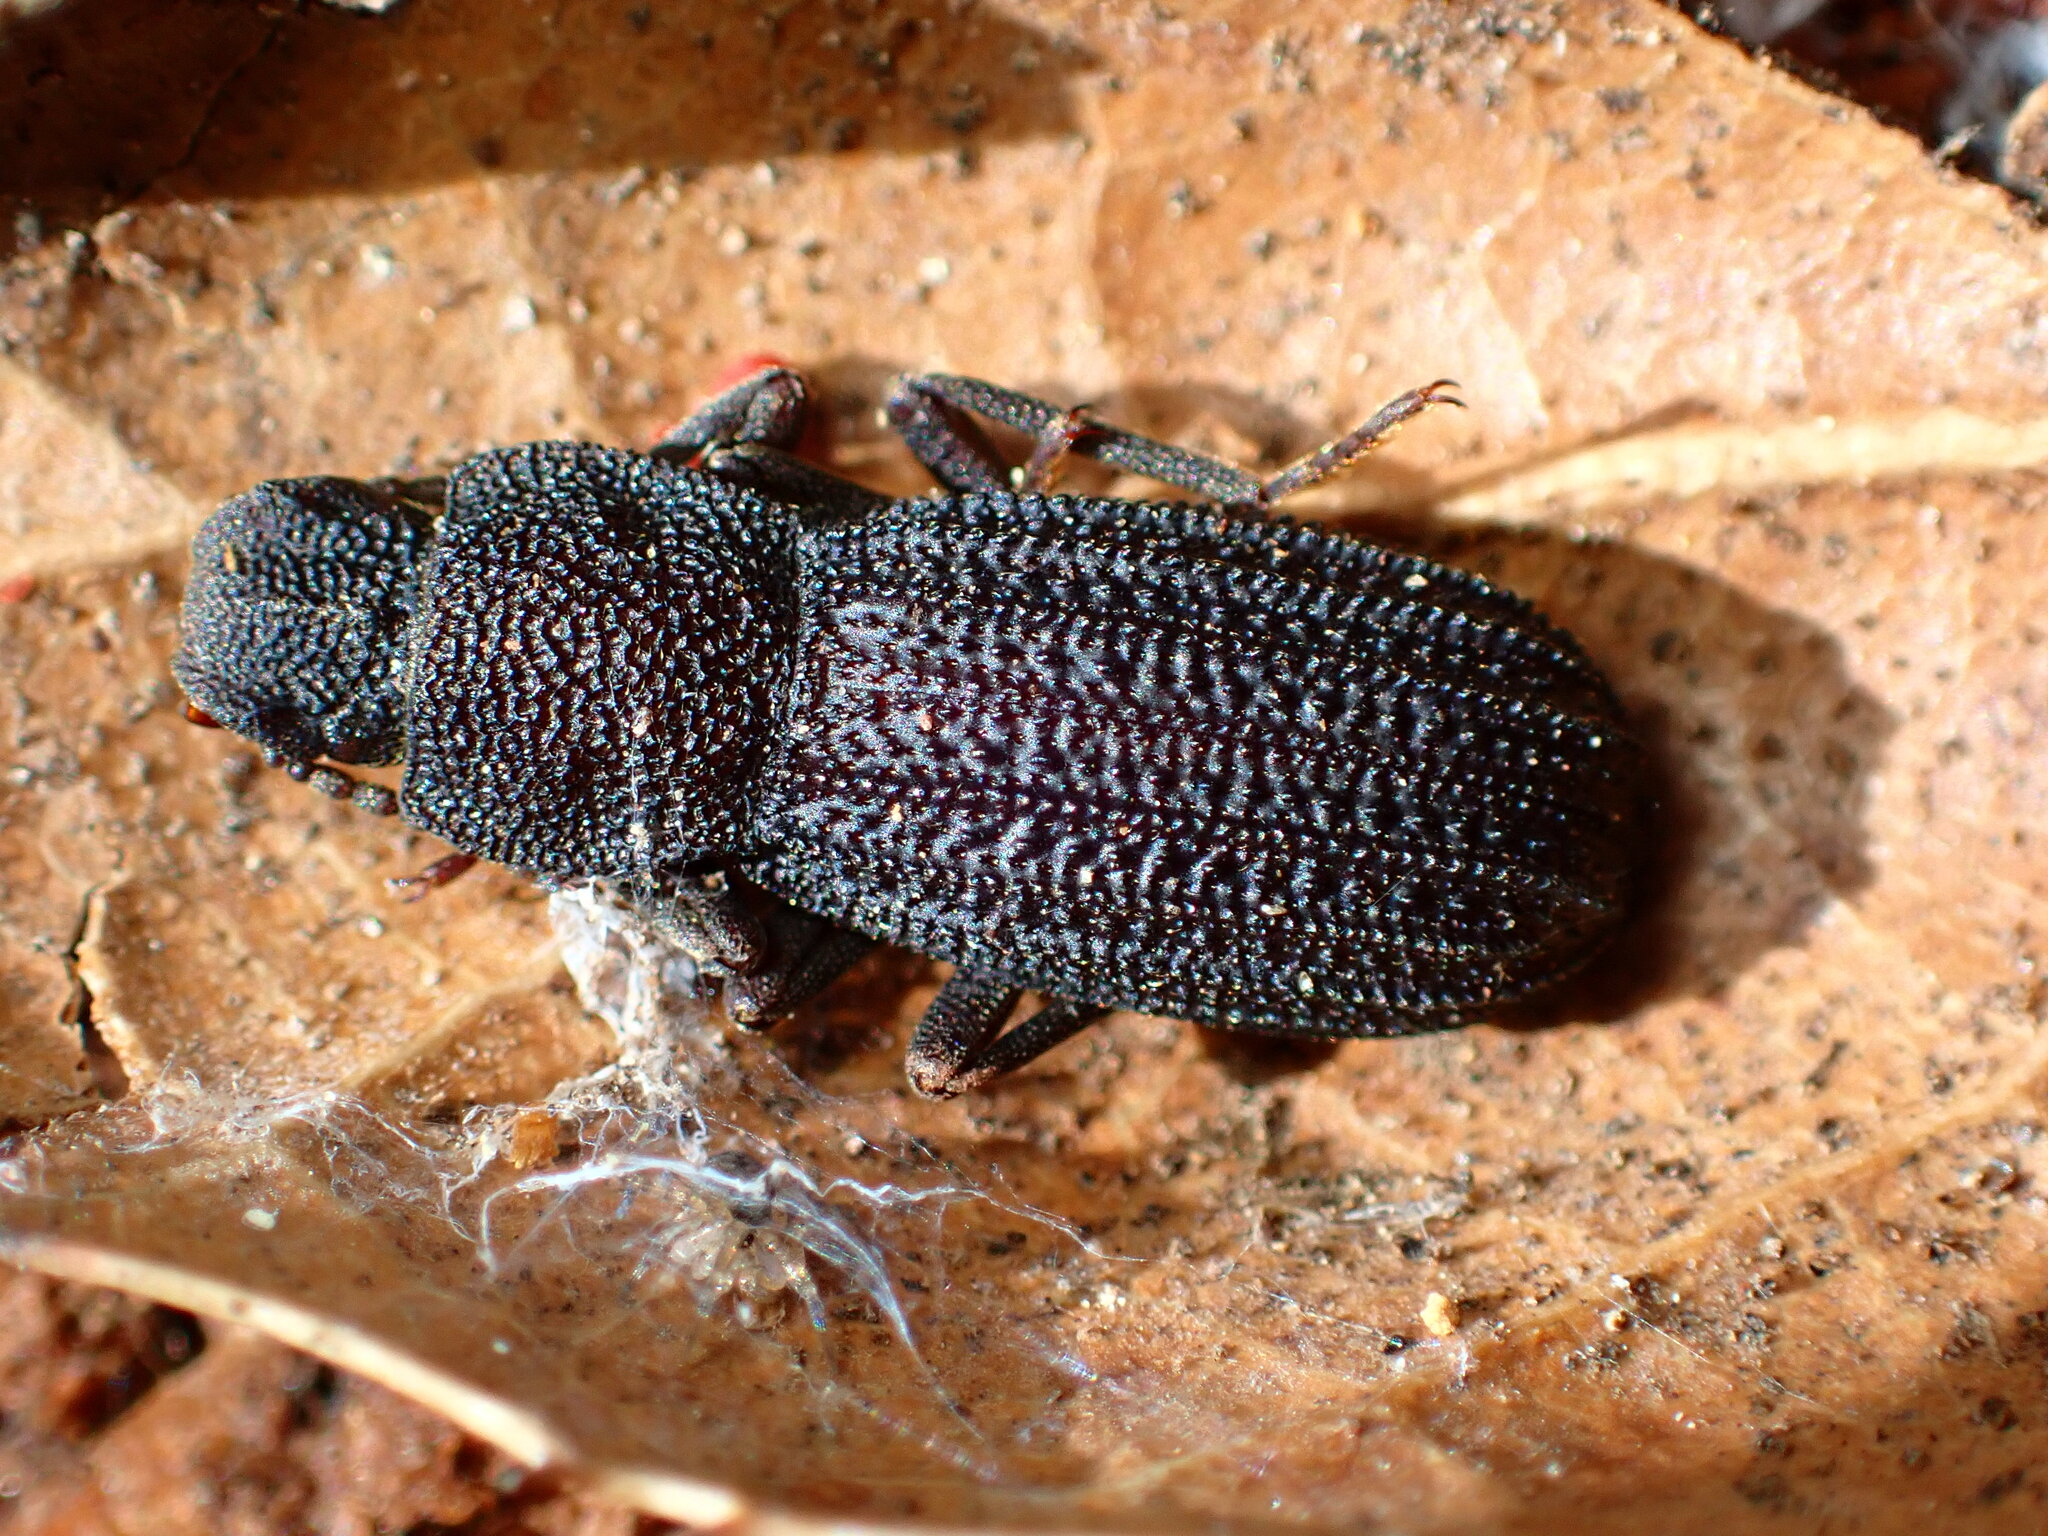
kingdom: Animalia
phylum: Arthropoda
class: Insecta
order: Coleoptera
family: Tenebrionidae
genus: Nyctoporis
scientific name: Nyctoporis carinata
